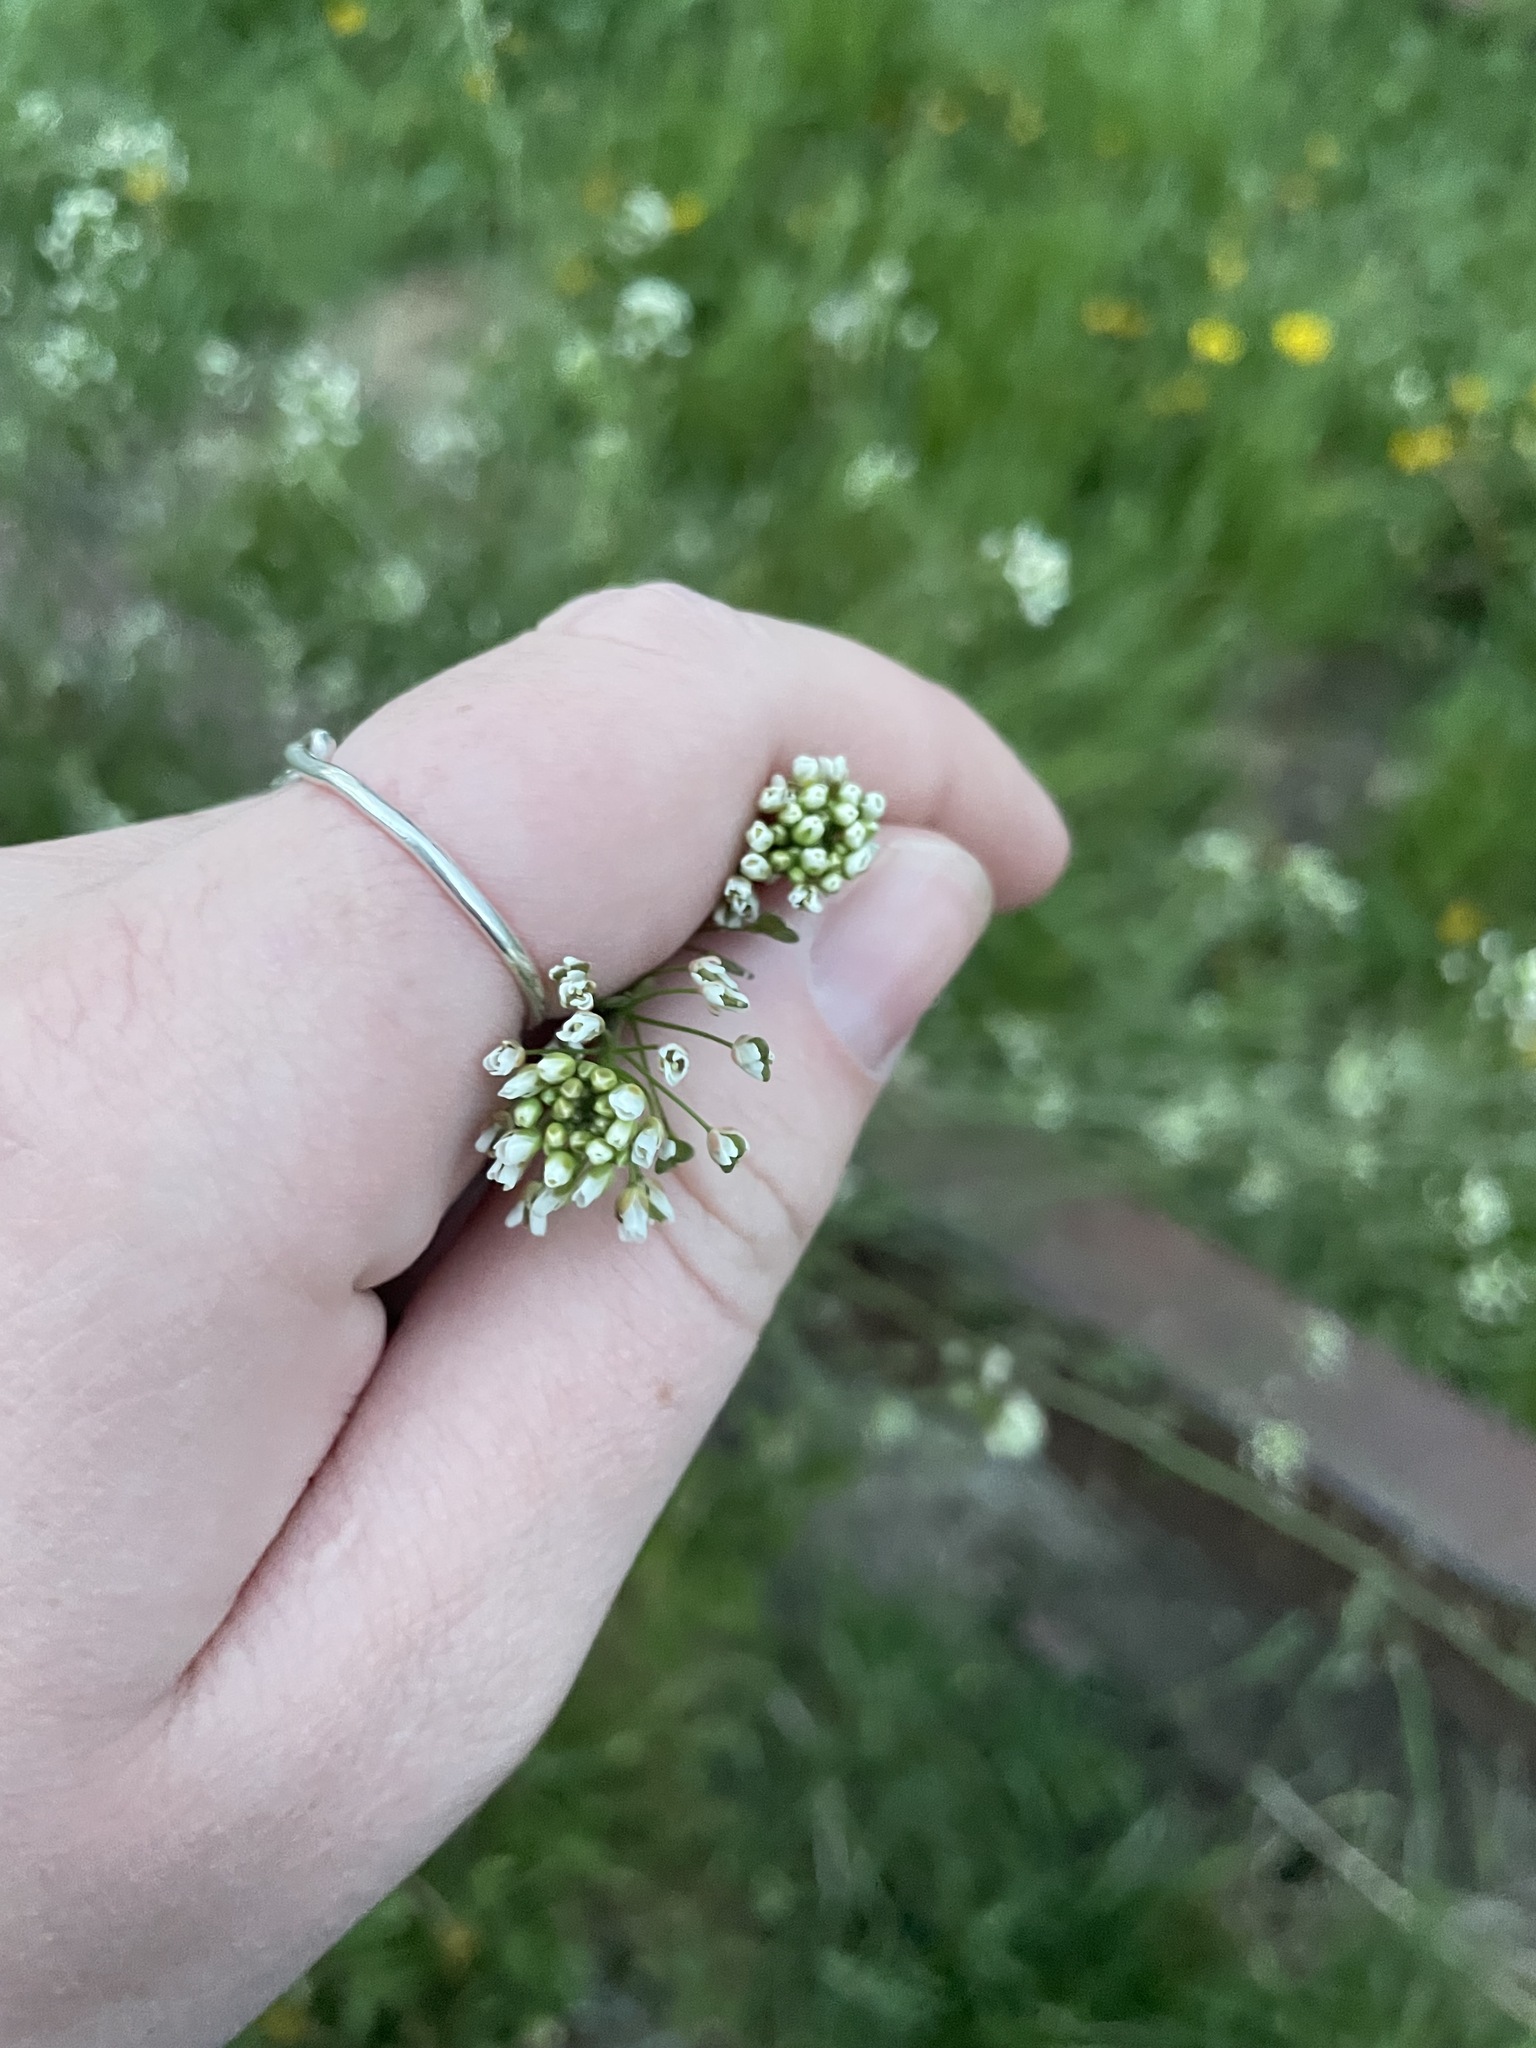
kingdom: Plantae
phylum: Tracheophyta
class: Magnoliopsida
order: Brassicales
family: Brassicaceae
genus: Capsella
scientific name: Capsella bursa-pastoris
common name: Shepherd's purse
